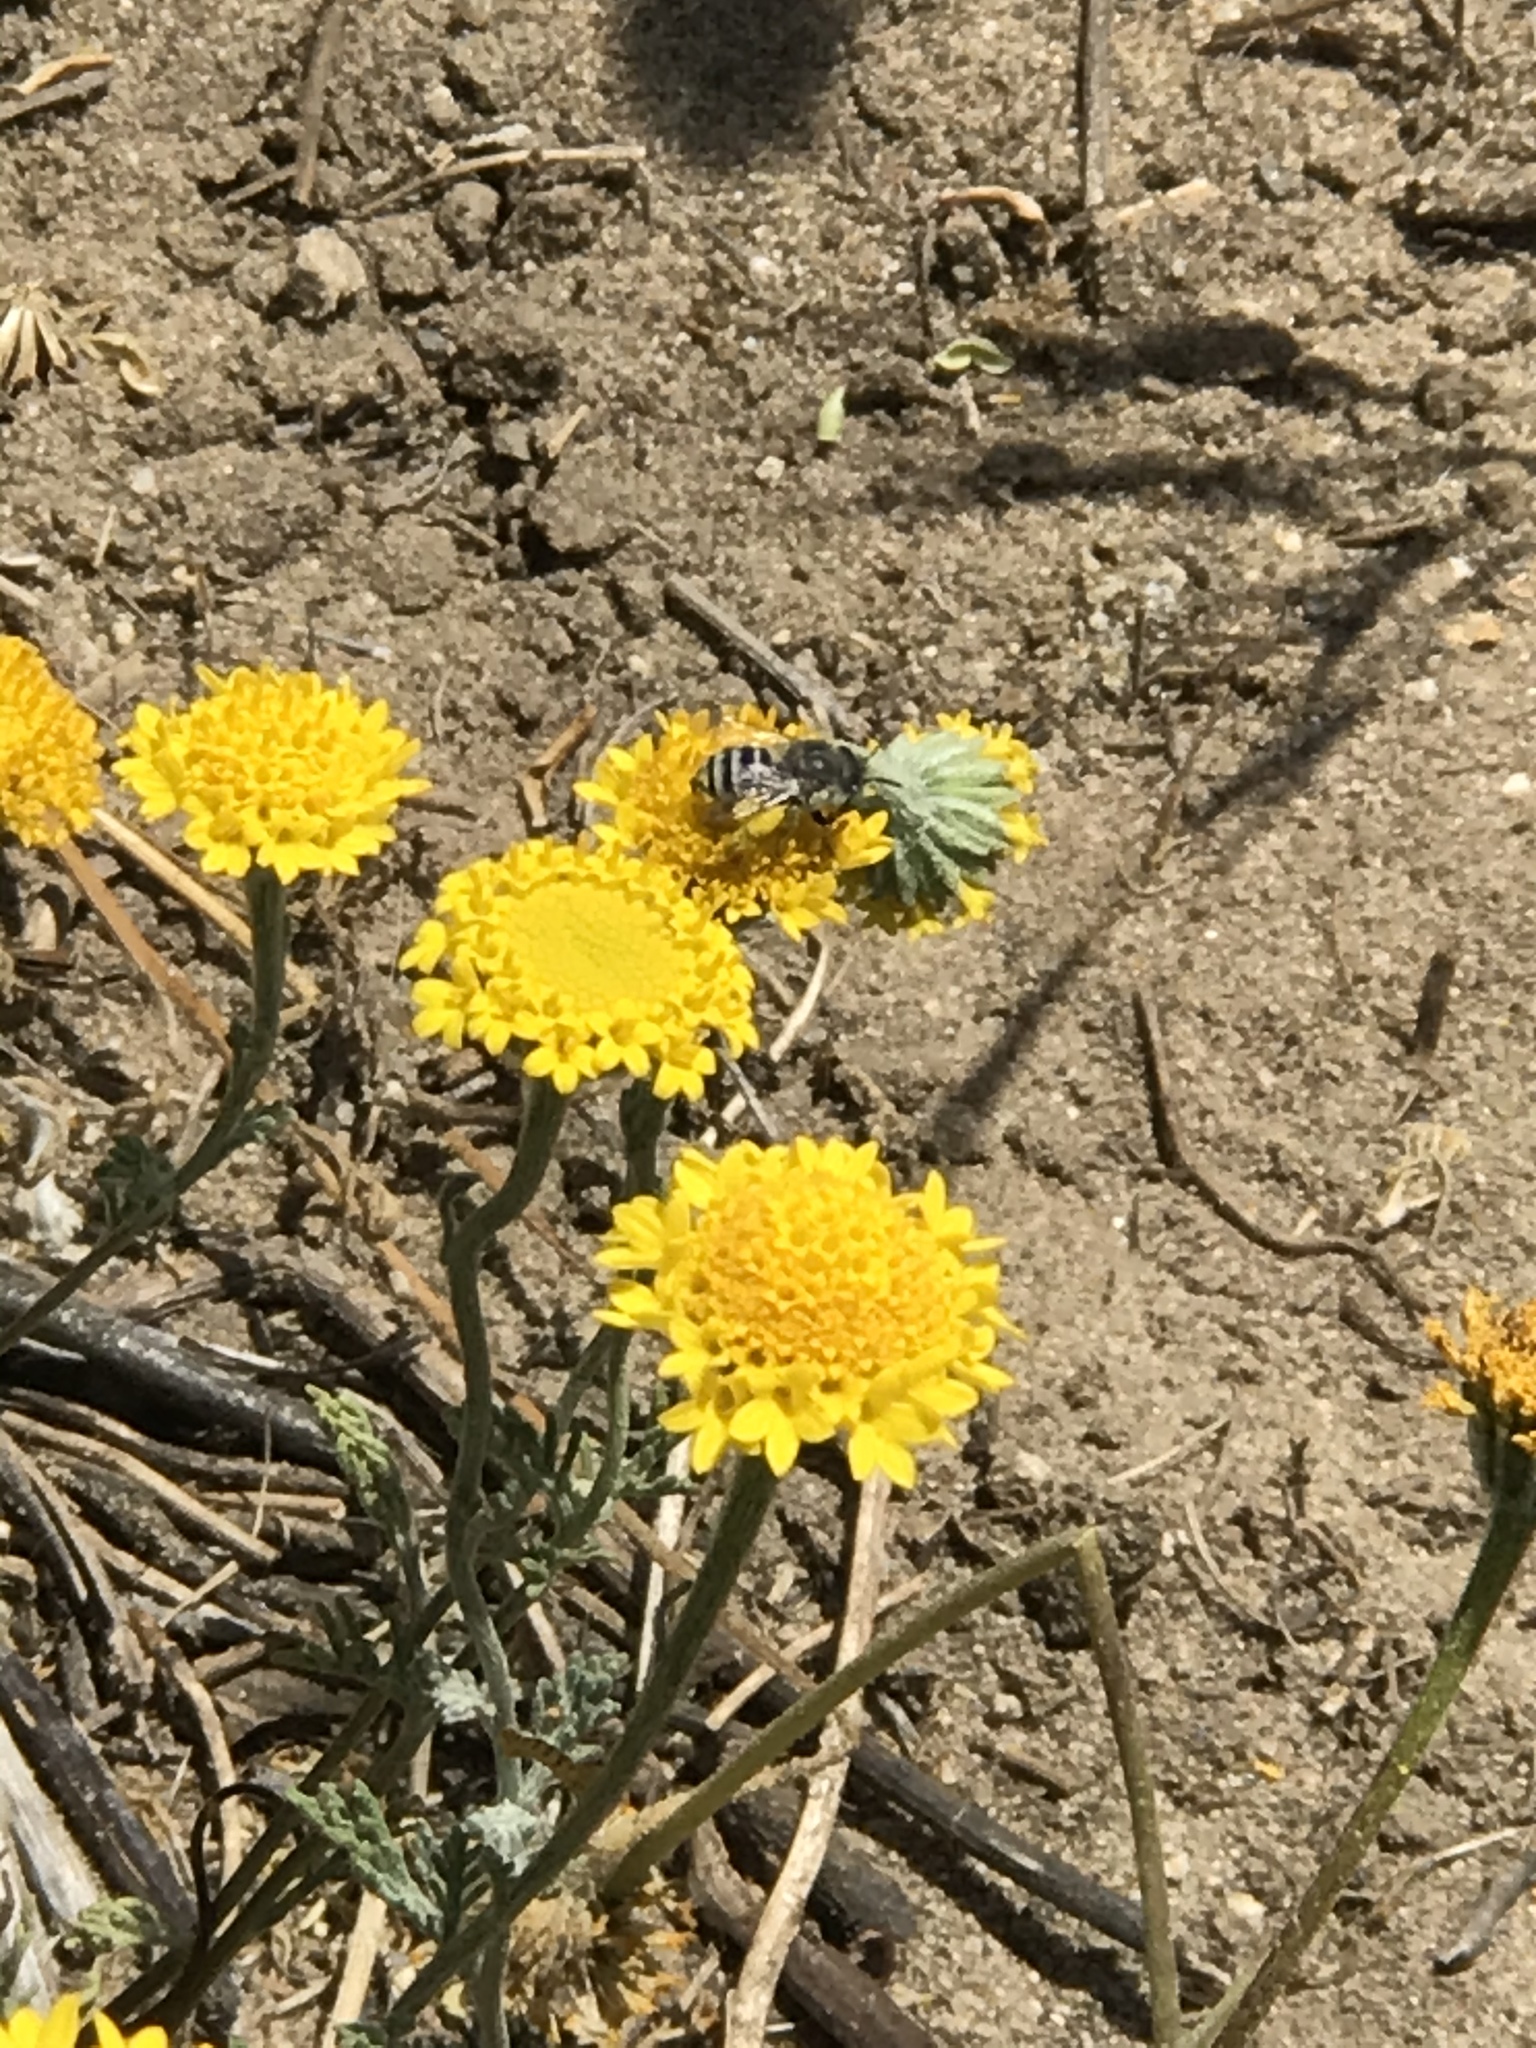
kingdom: Animalia
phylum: Arthropoda
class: Insecta
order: Hymenoptera
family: Apidae
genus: Anthophora
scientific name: Anthophora curta
